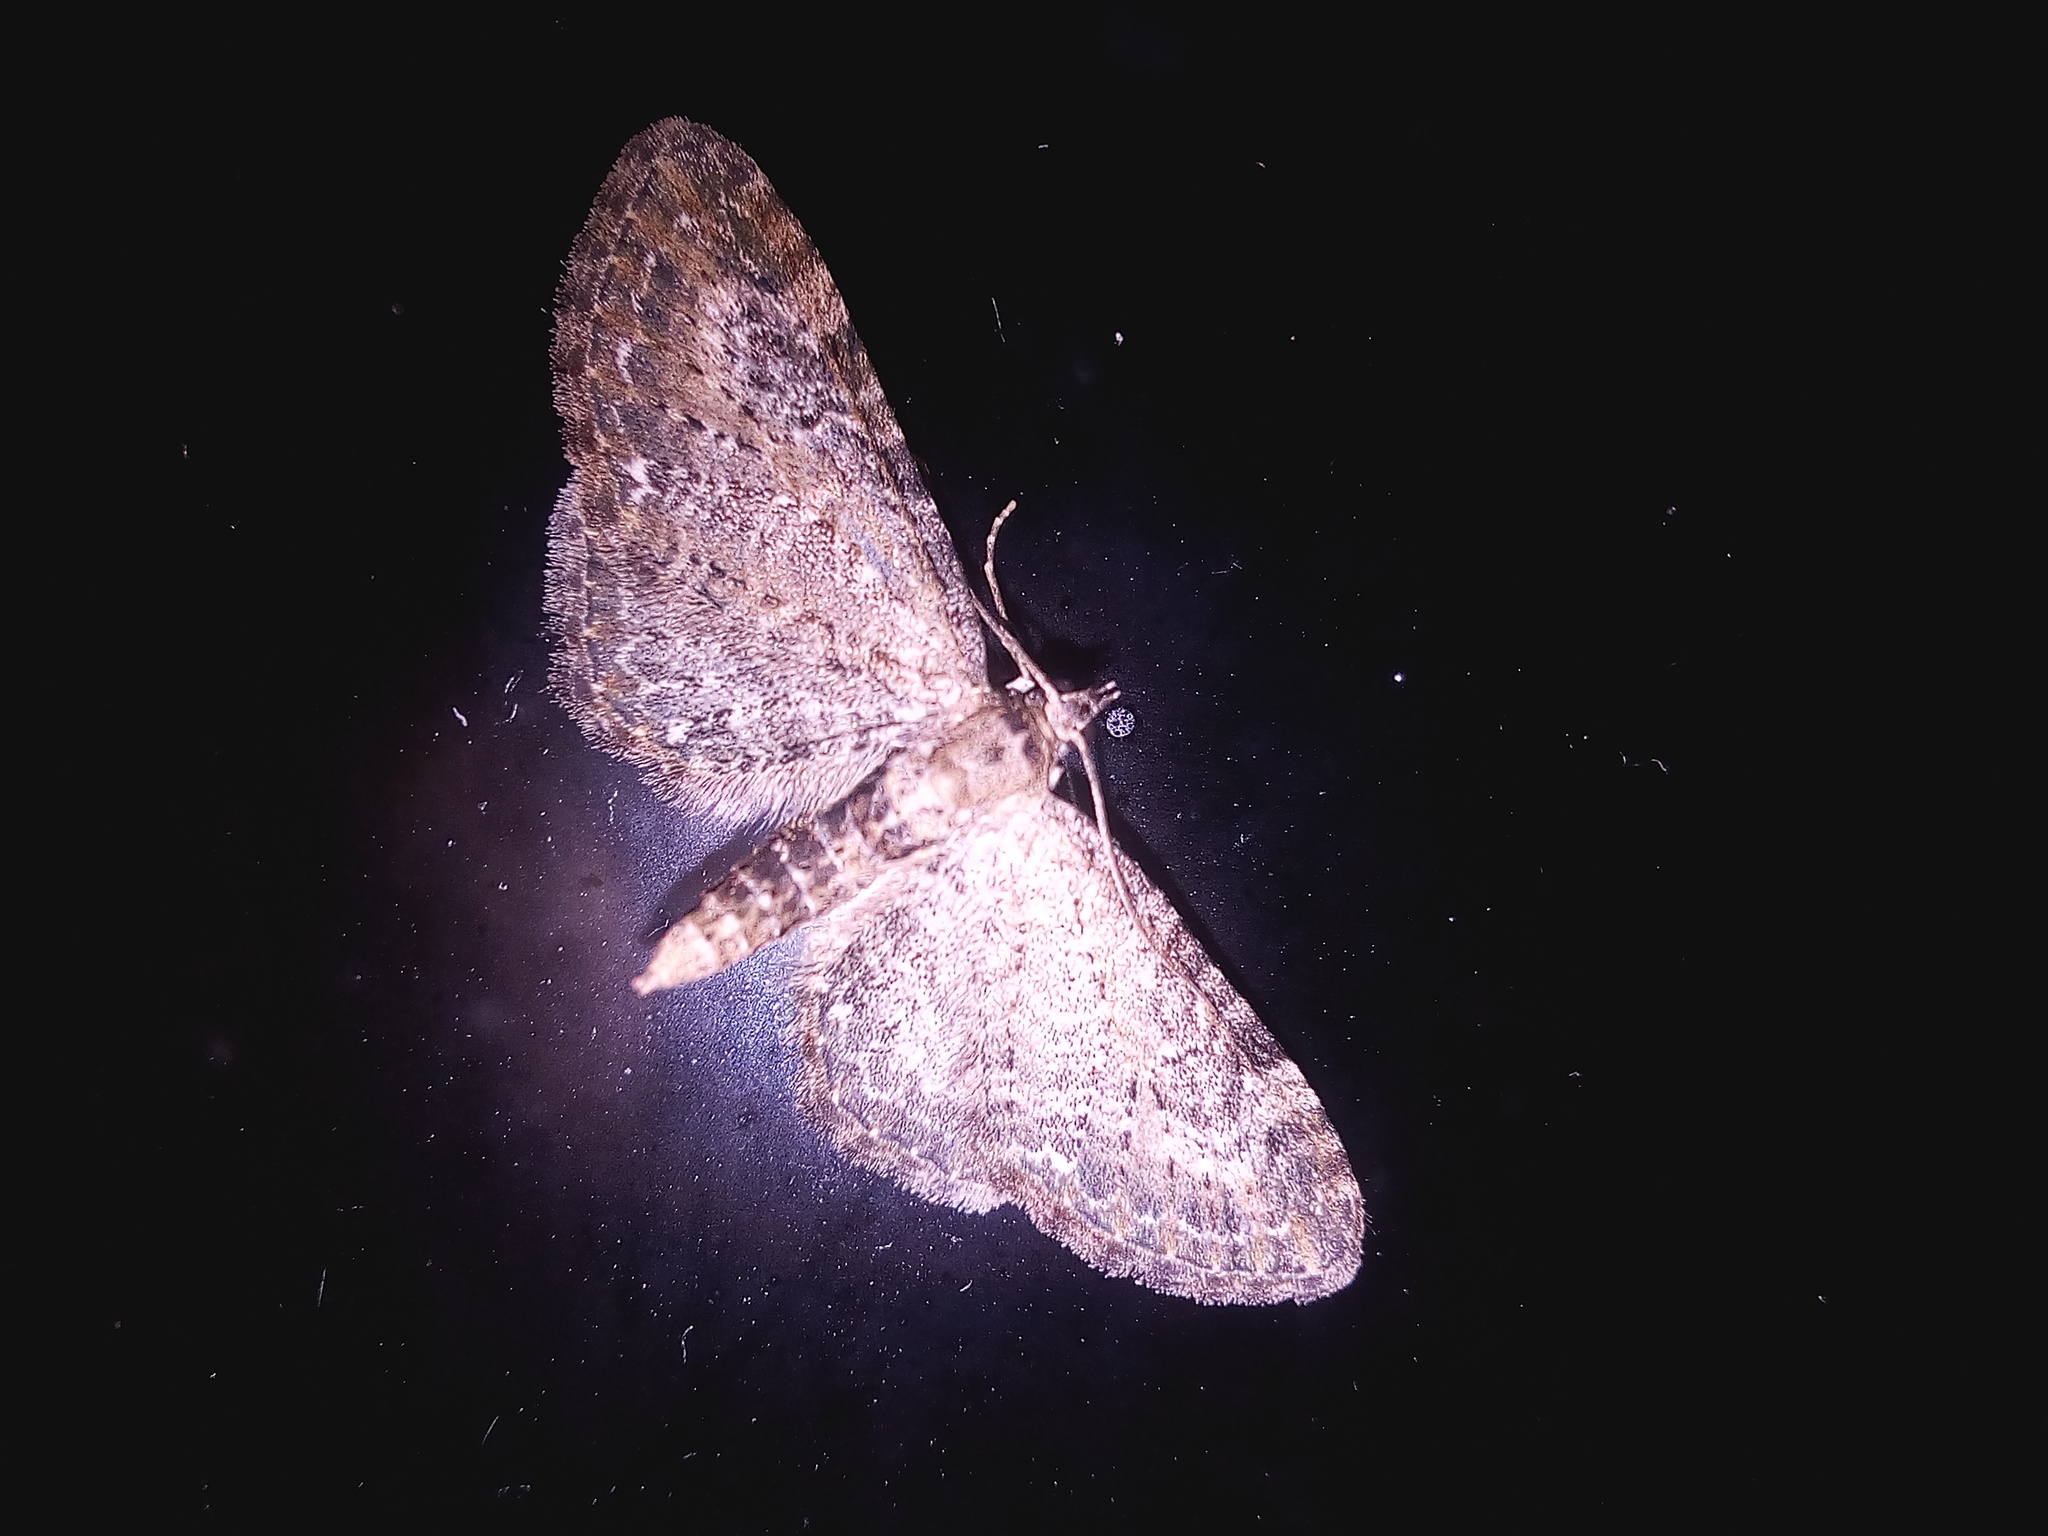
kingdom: Animalia
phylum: Arthropoda
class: Insecta
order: Lepidoptera
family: Geometridae
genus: Eupithecia
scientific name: Eupithecia exiguata
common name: Mottled pug
